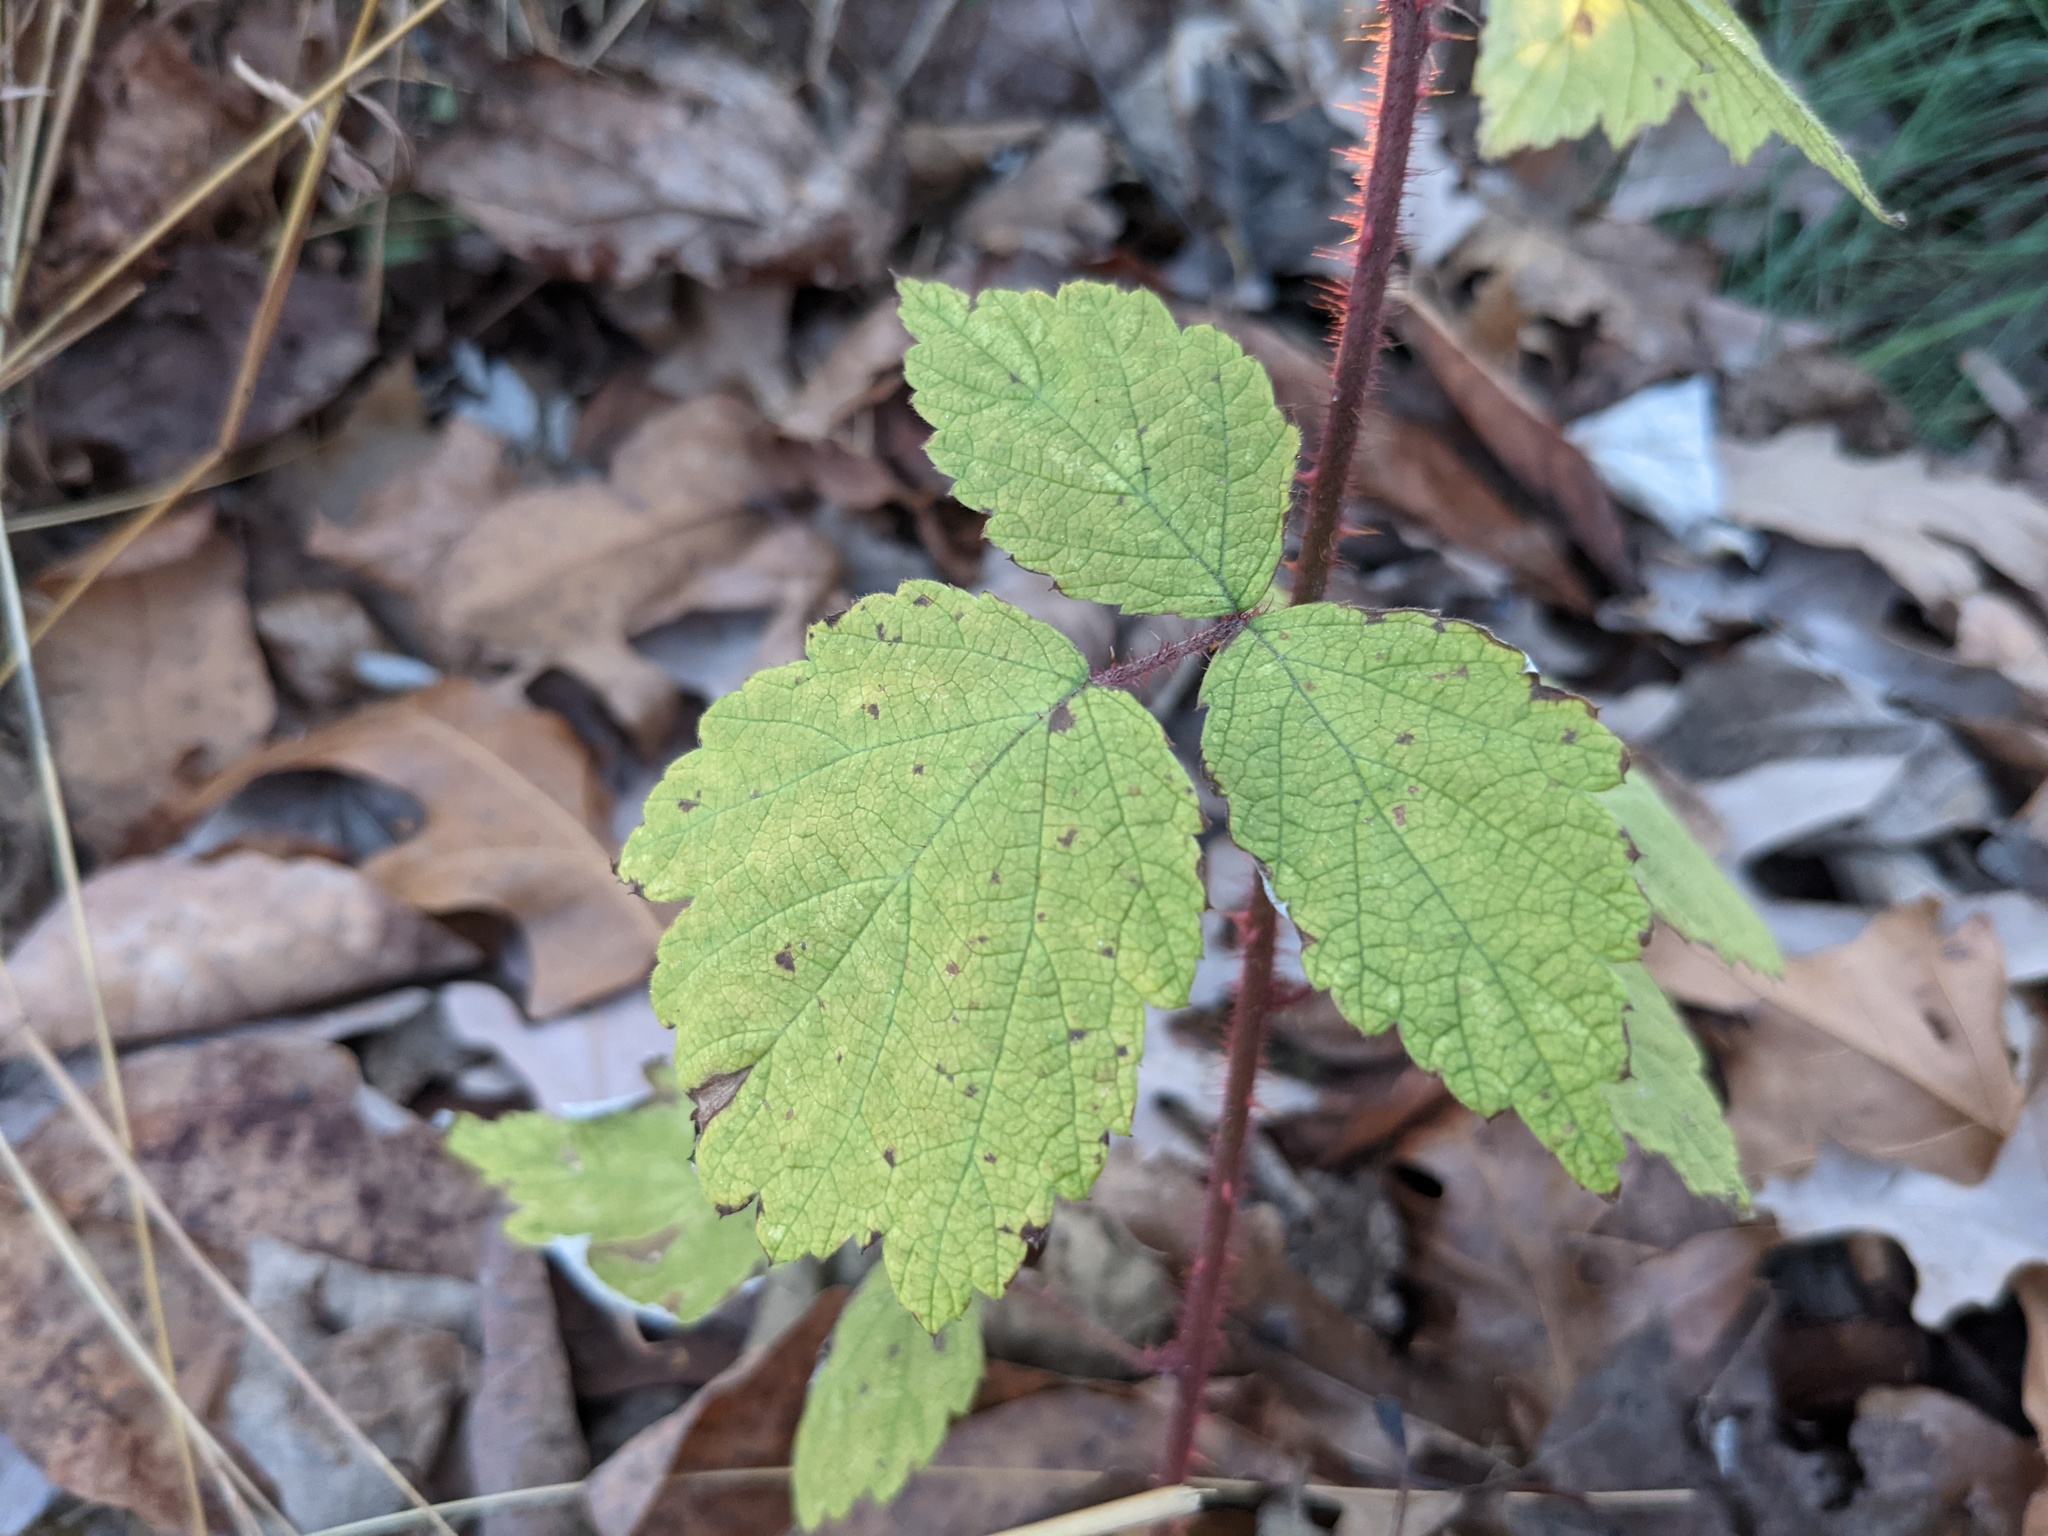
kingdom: Plantae
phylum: Tracheophyta
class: Magnoliopsida
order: Rosales
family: Rosaceae
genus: Rubus
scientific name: Rubus phoenicolasius
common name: Japanese wineberry
